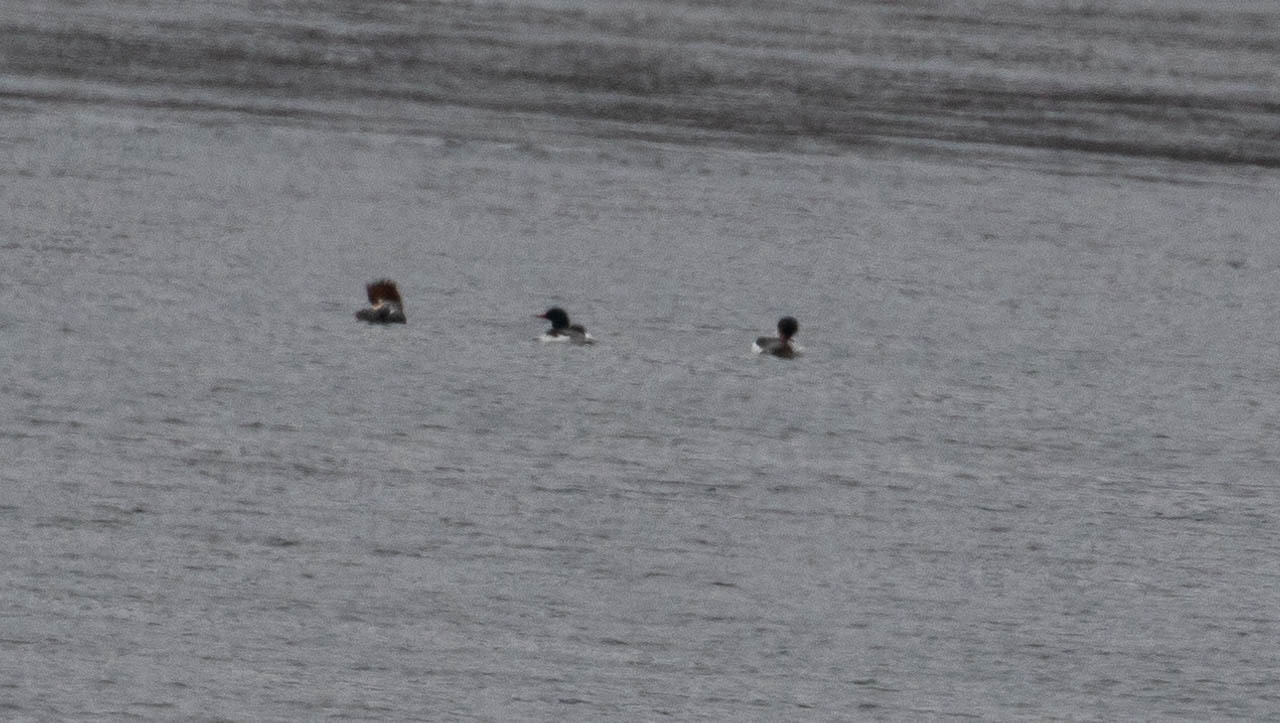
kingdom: Animalia
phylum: Chordata
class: Aves
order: Anseriformes
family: Anatidae
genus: Mergus
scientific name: Mergus merganser
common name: Common merganser
